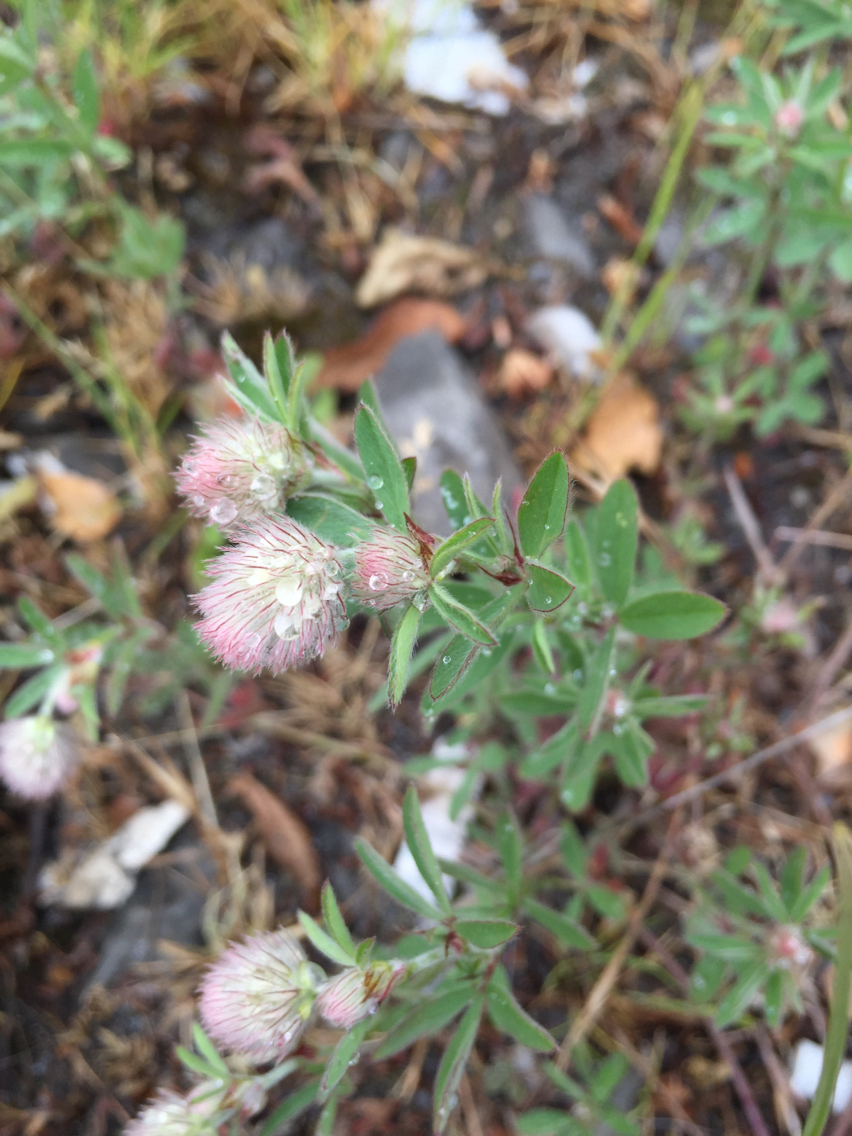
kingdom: Plantae
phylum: Tracheophyta
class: Magnoliopsida
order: Fabales
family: Fabaceae
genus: Trifolium
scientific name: Trifolium arvense
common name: Hare's-foot clover
